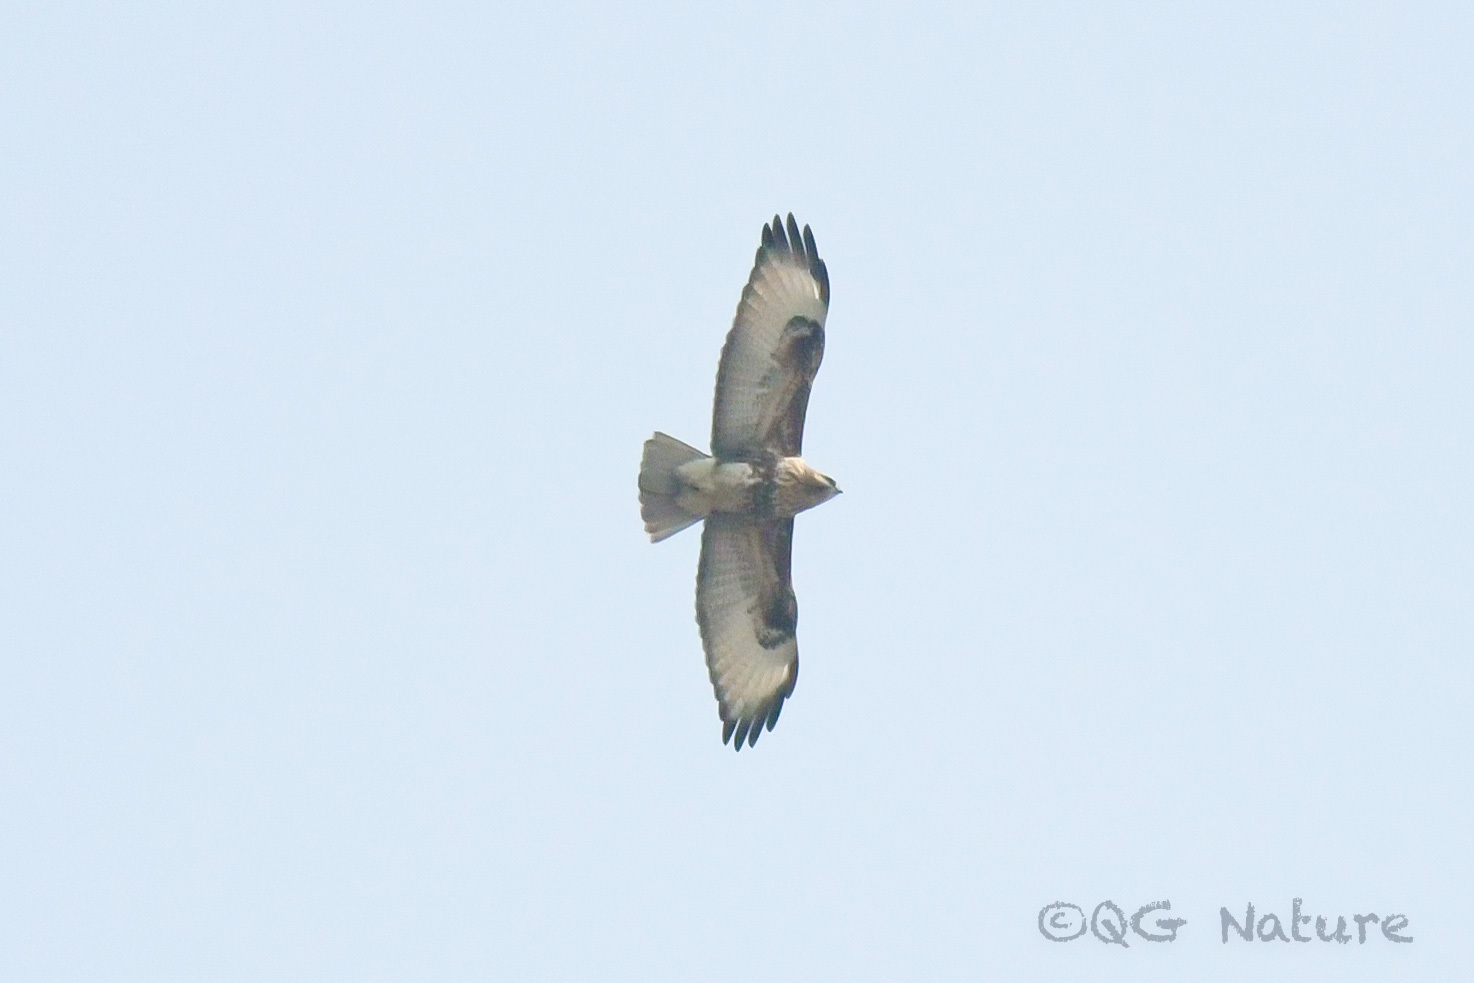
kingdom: Animalia
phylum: Chordata
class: Aves
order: Accipitriformes
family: Accipitridae
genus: Buteo
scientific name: Buteo japonicus
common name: Eastern buzzard
